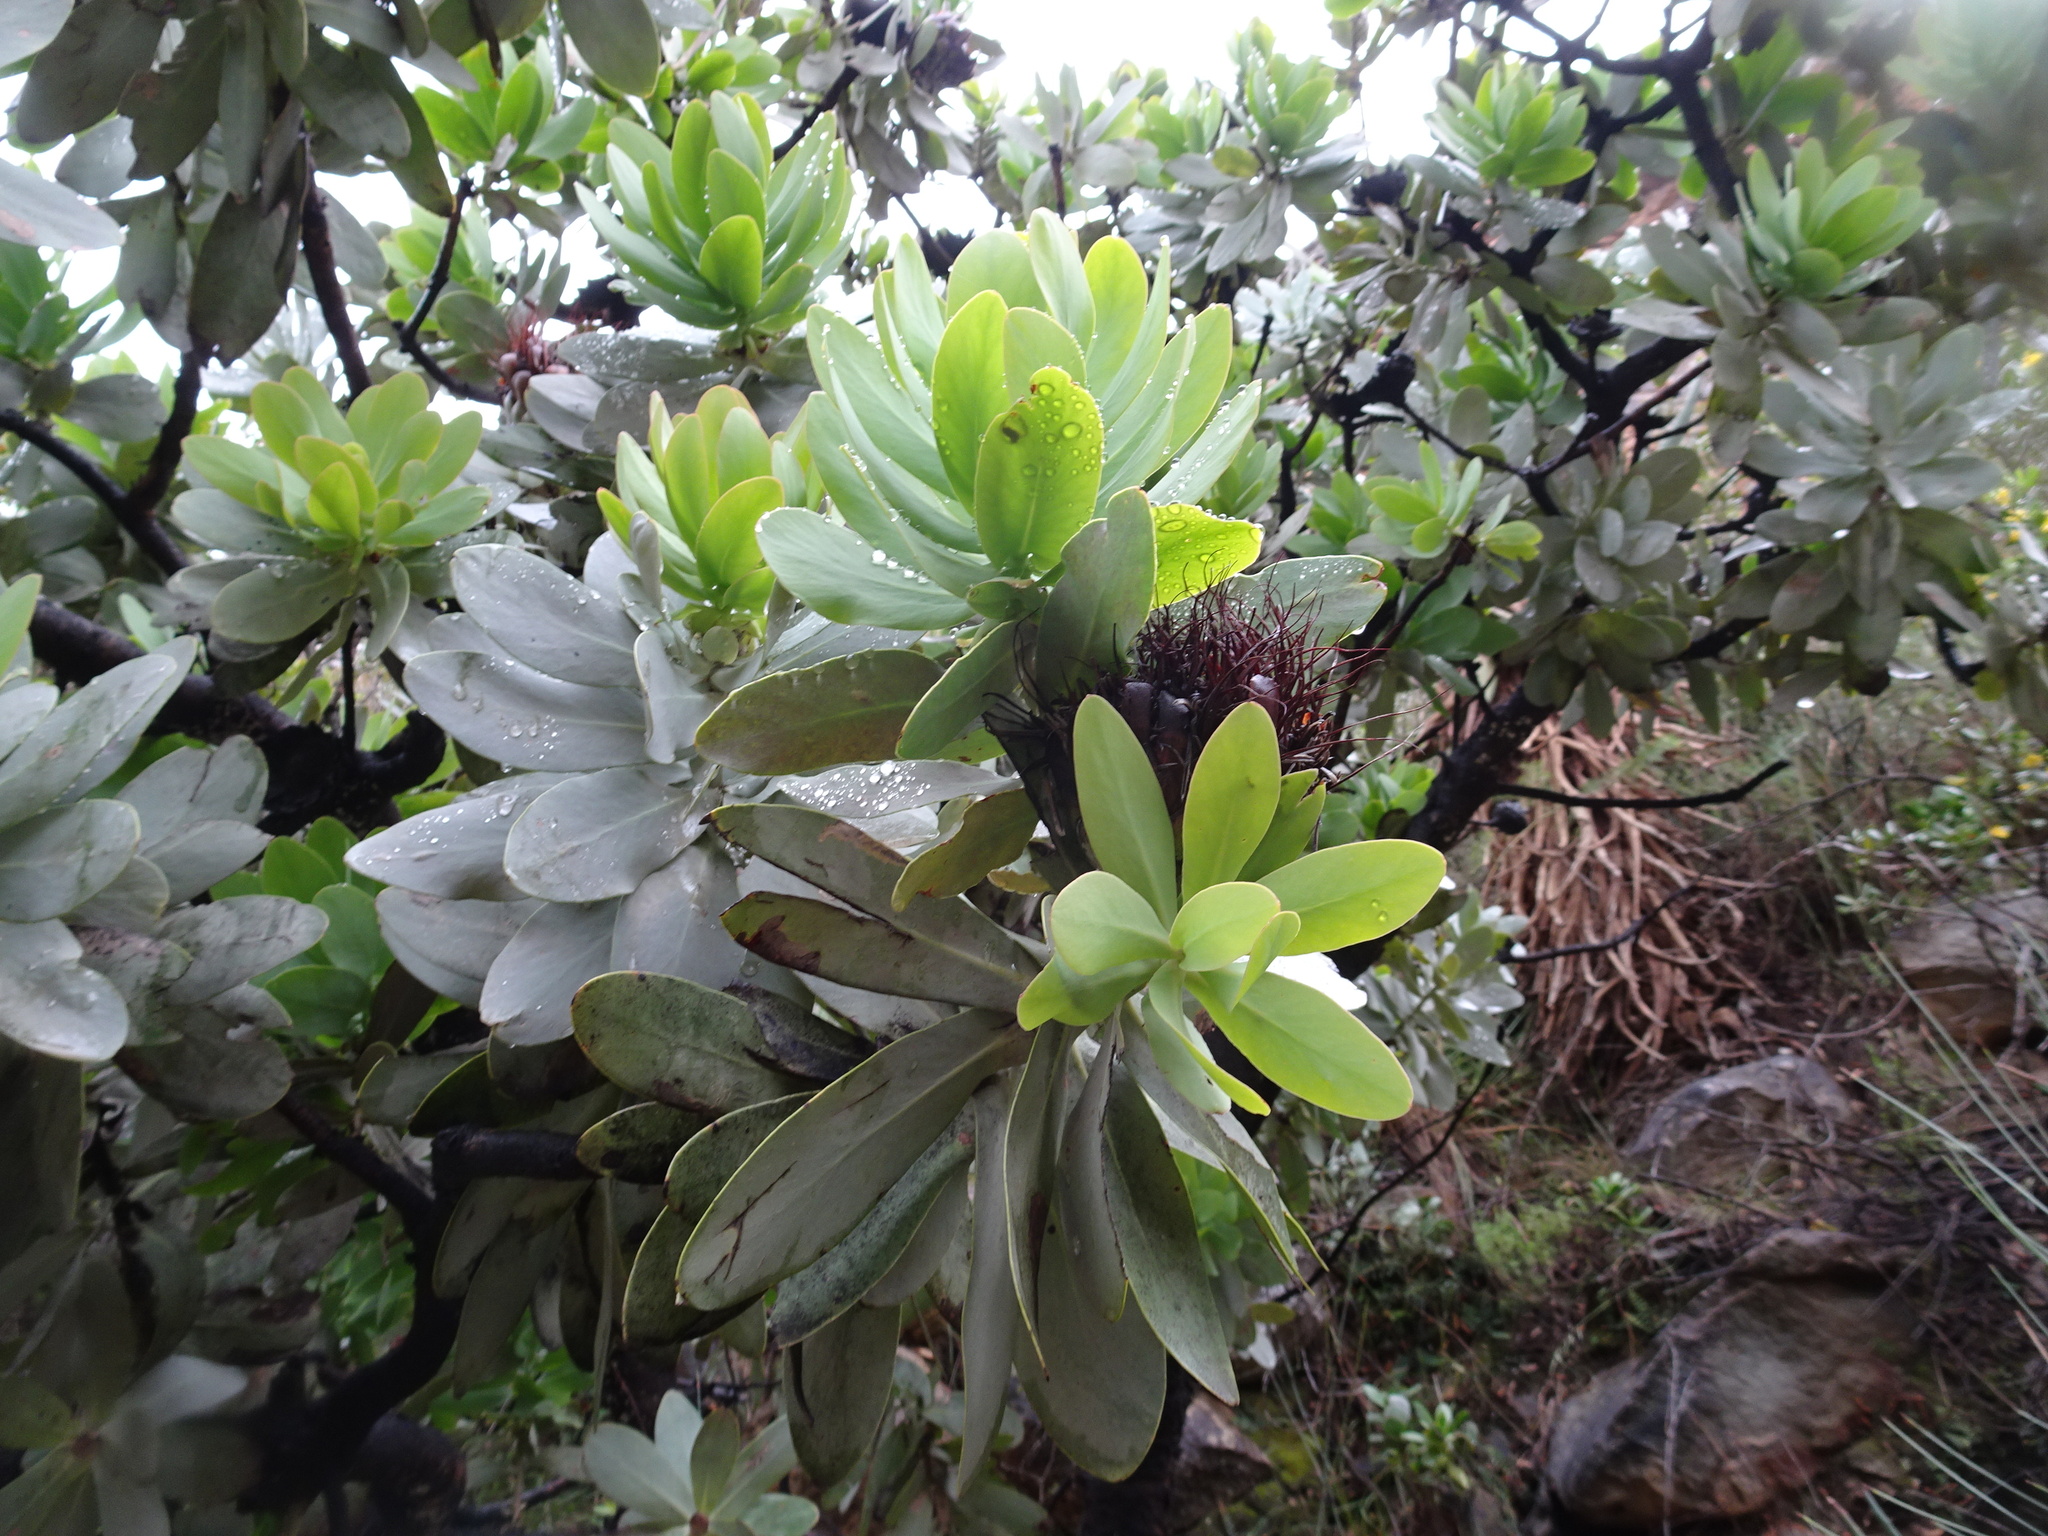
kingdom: Plantae
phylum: Tracheophyta
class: Magnoliopsida
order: Proteales
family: Proteaceae
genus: Protea
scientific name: Protea nitida
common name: Tree protea
